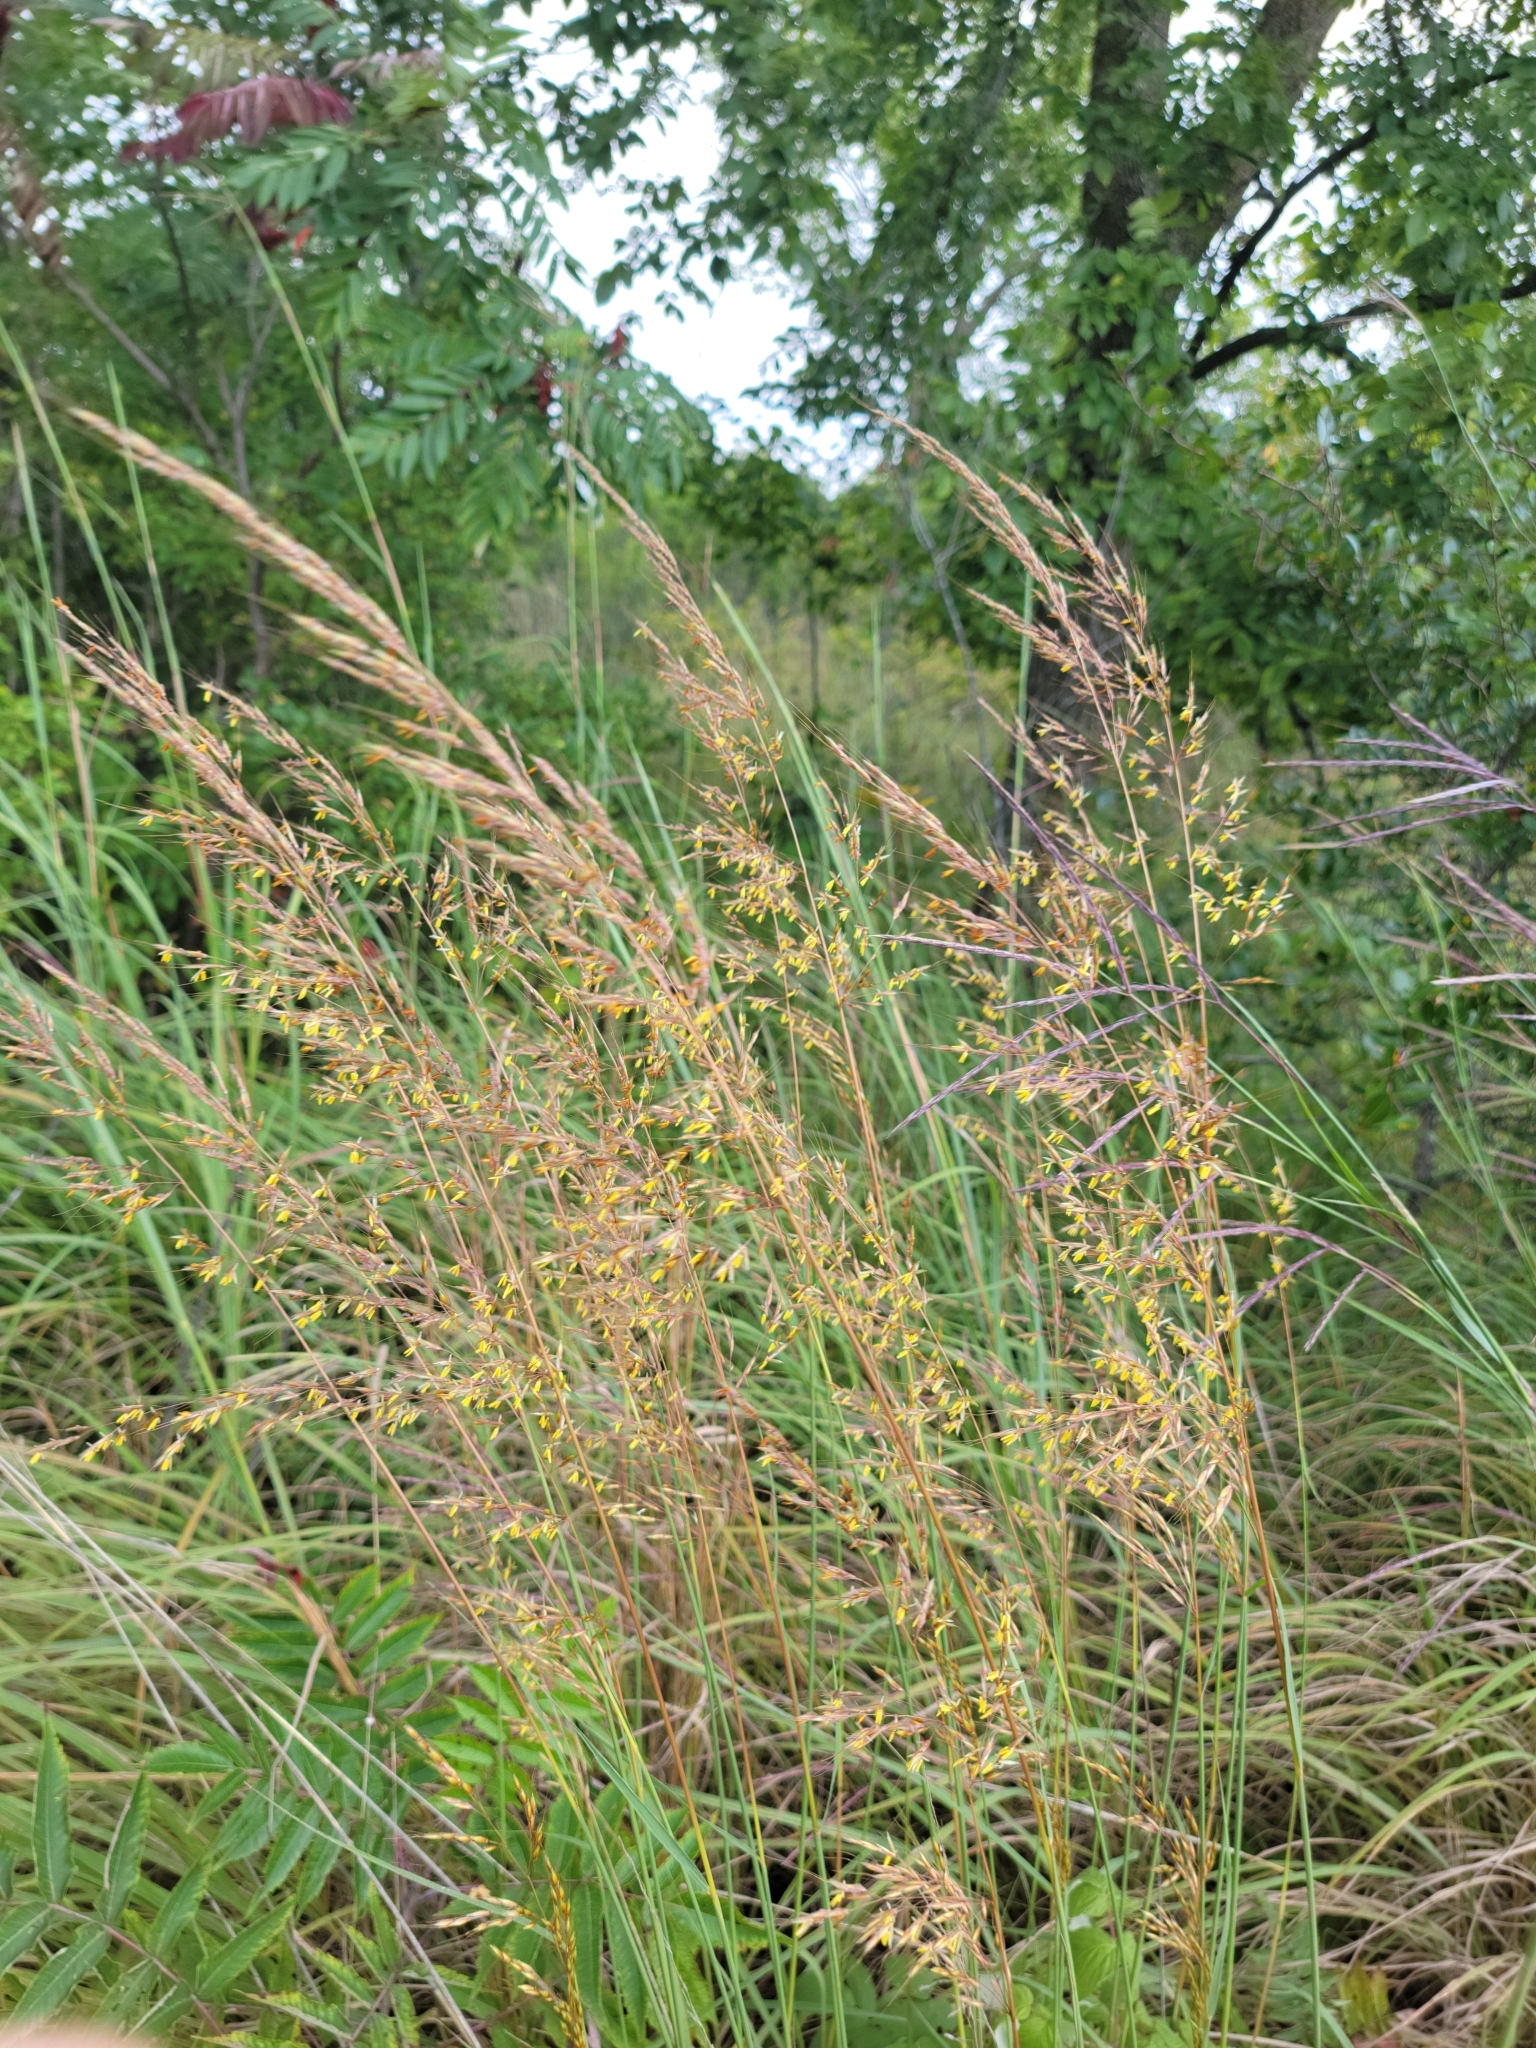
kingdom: Plantae
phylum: Tracheophyta
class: Liliopsida
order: Poales
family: Poaceae
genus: Sorghastrum
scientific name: Sorghastrum nutans
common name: Indian grass
